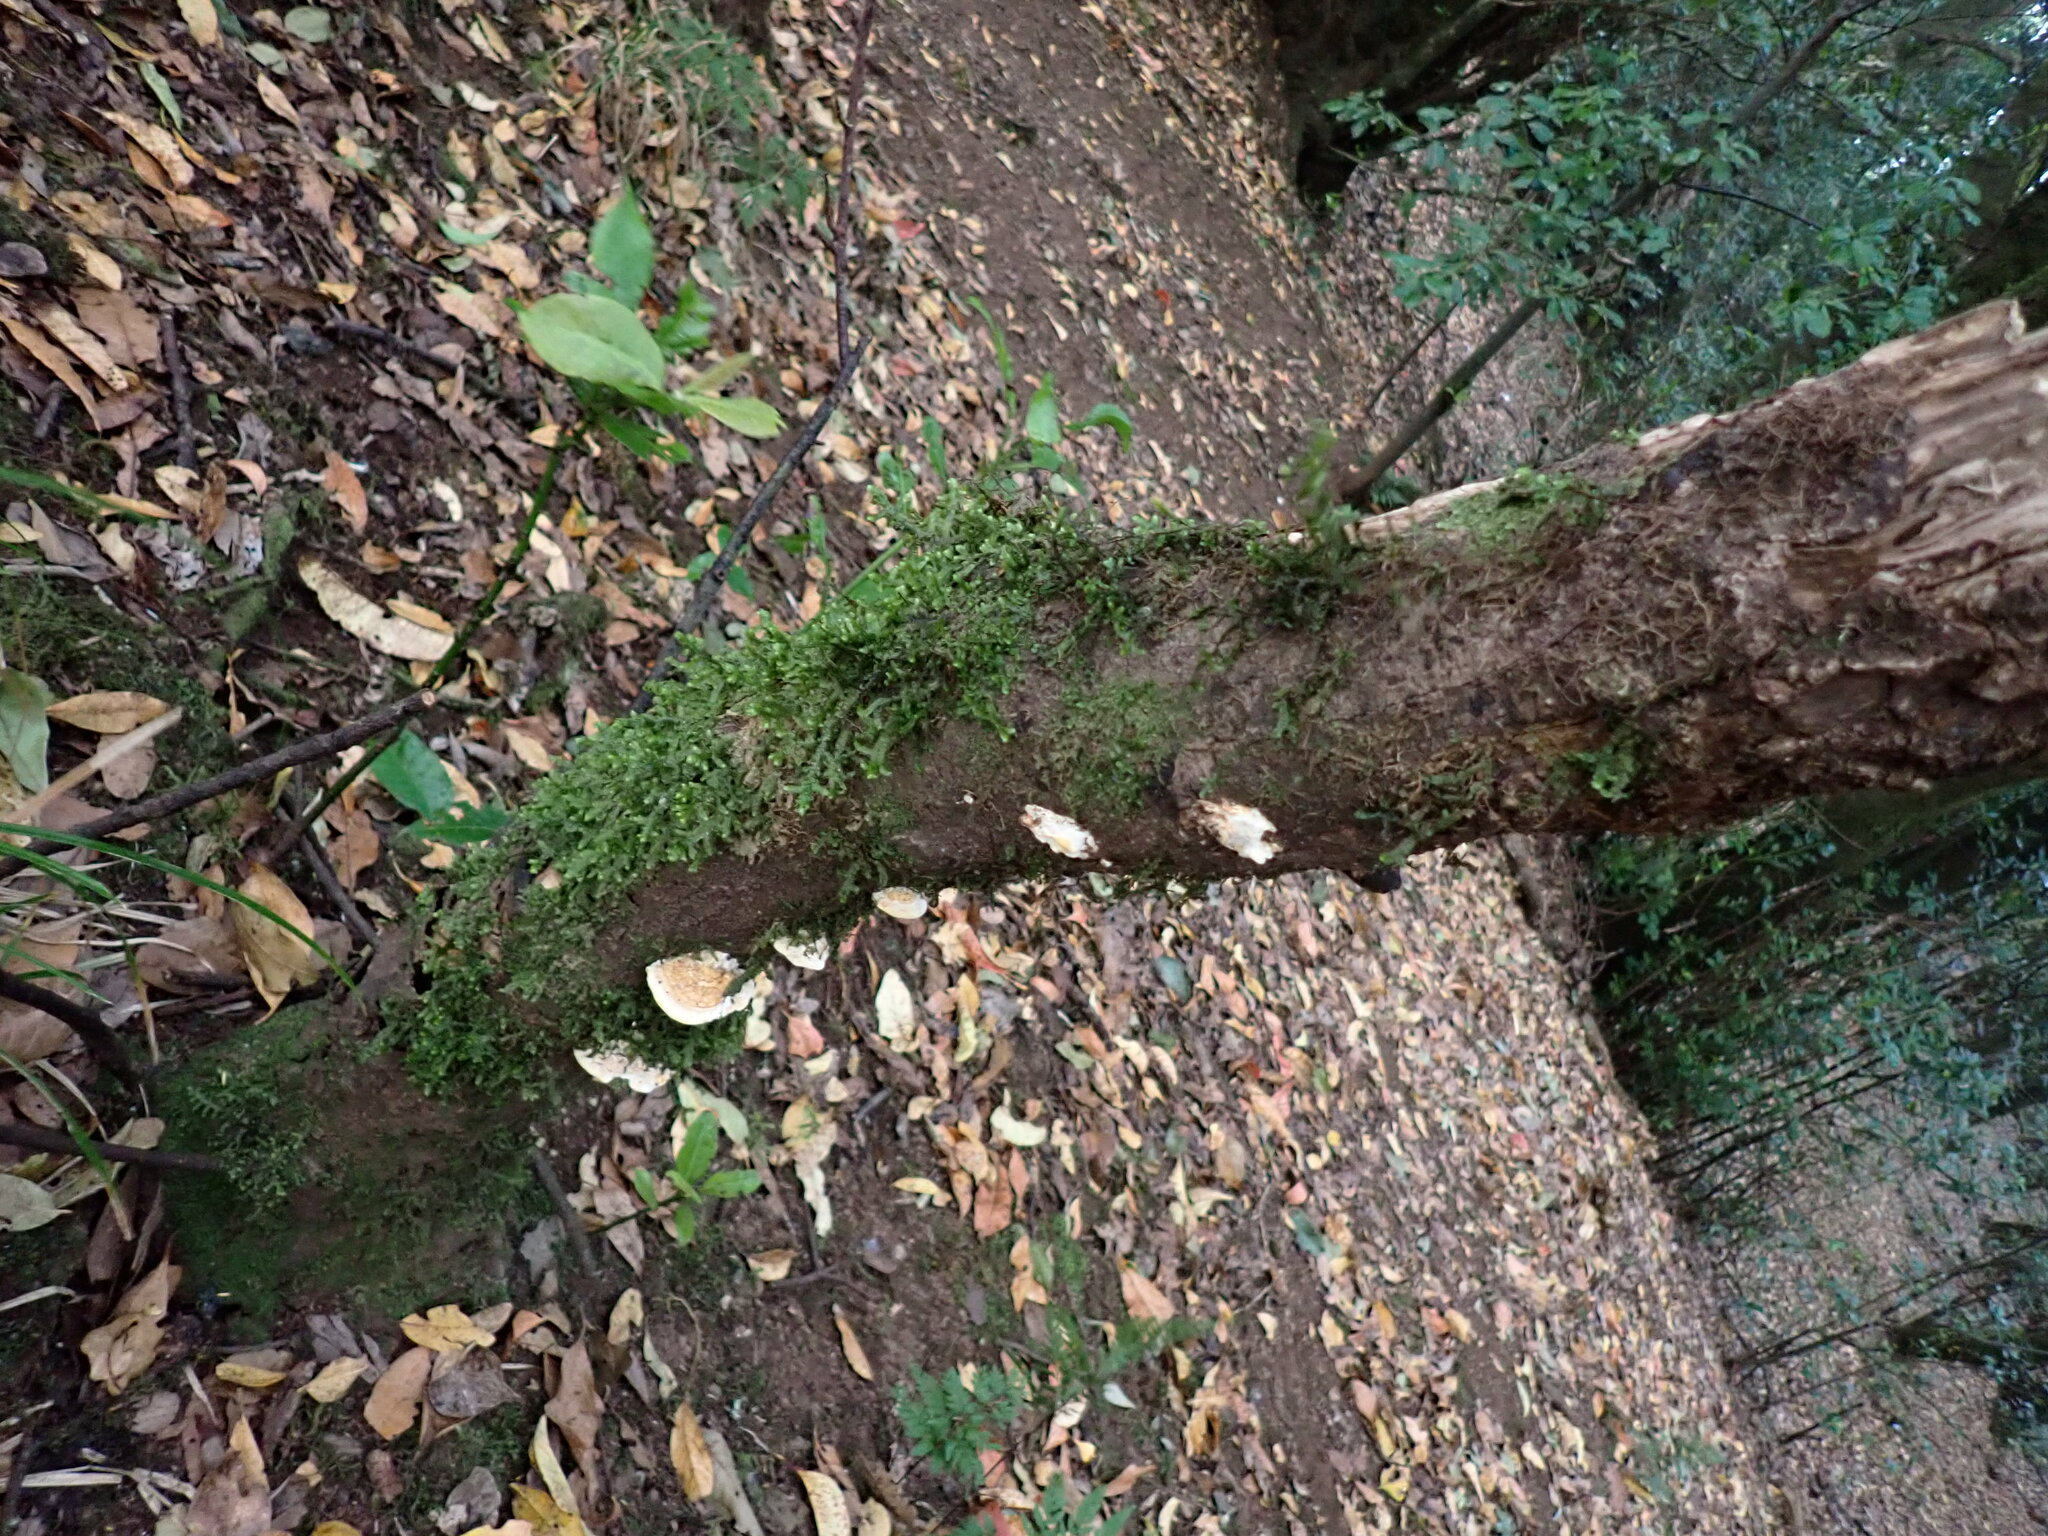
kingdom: Fungi
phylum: Basidiomycota
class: Agaricomycetes
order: Polyporales
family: Polyporaceae
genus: Truncospora
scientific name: Truncospora ochroleuca
